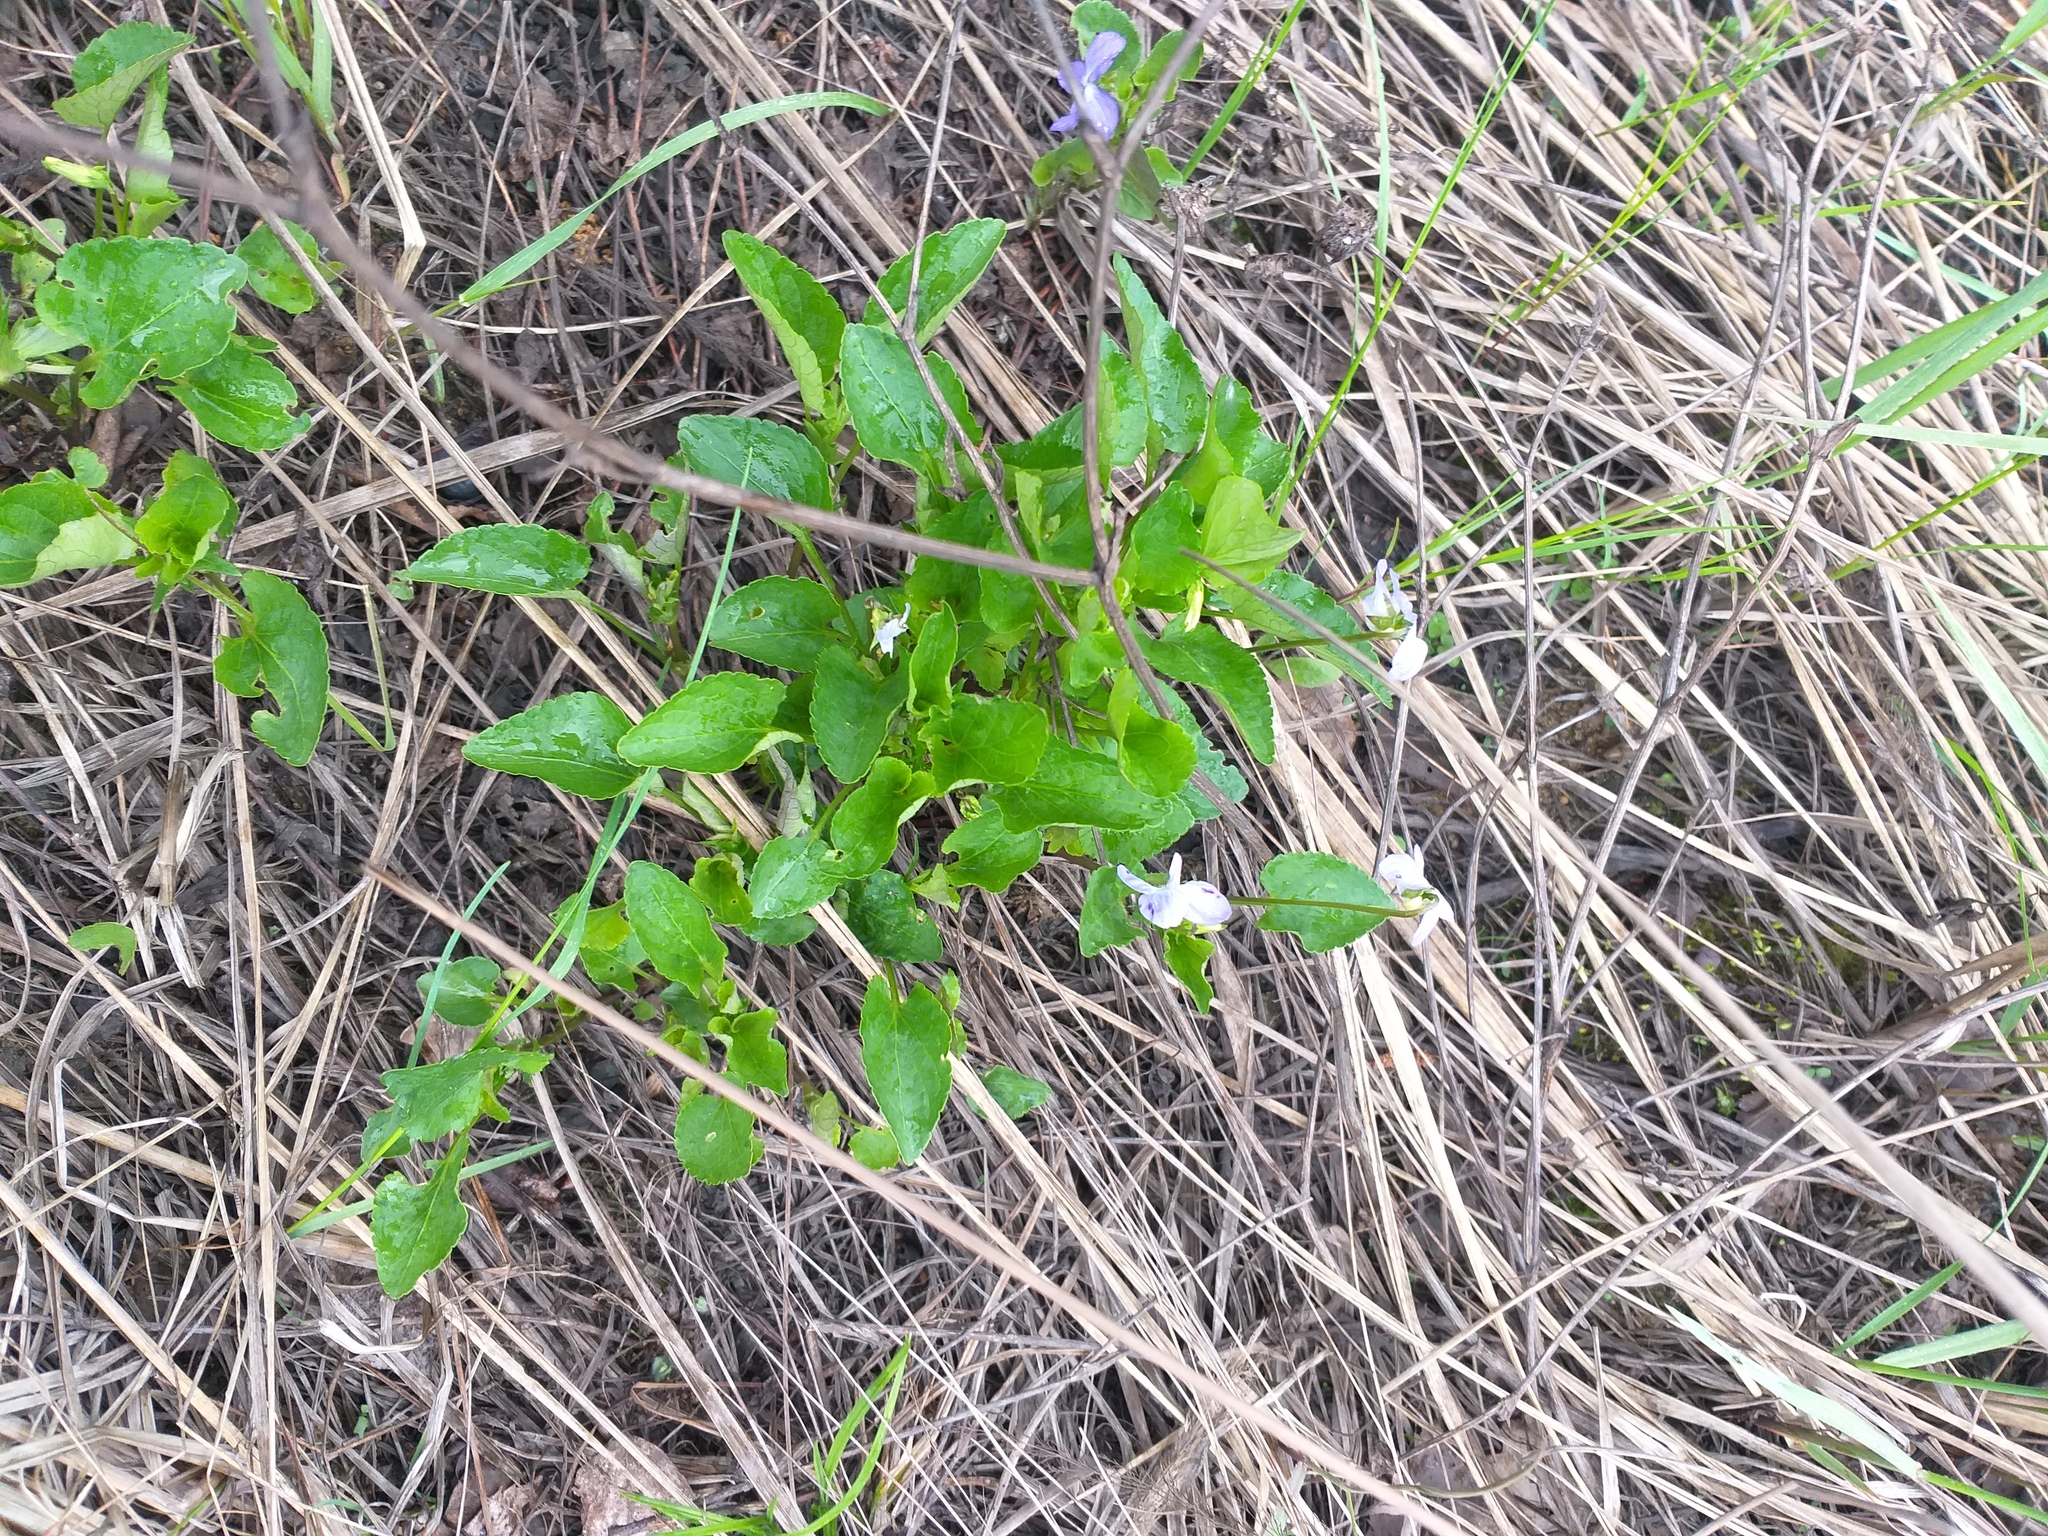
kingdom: Plantae
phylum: Tracheophyta
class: Magnoliopsida
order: Malpighiales
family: Violaceae
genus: Viola
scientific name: Viola canina
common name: Heath dog-violet
